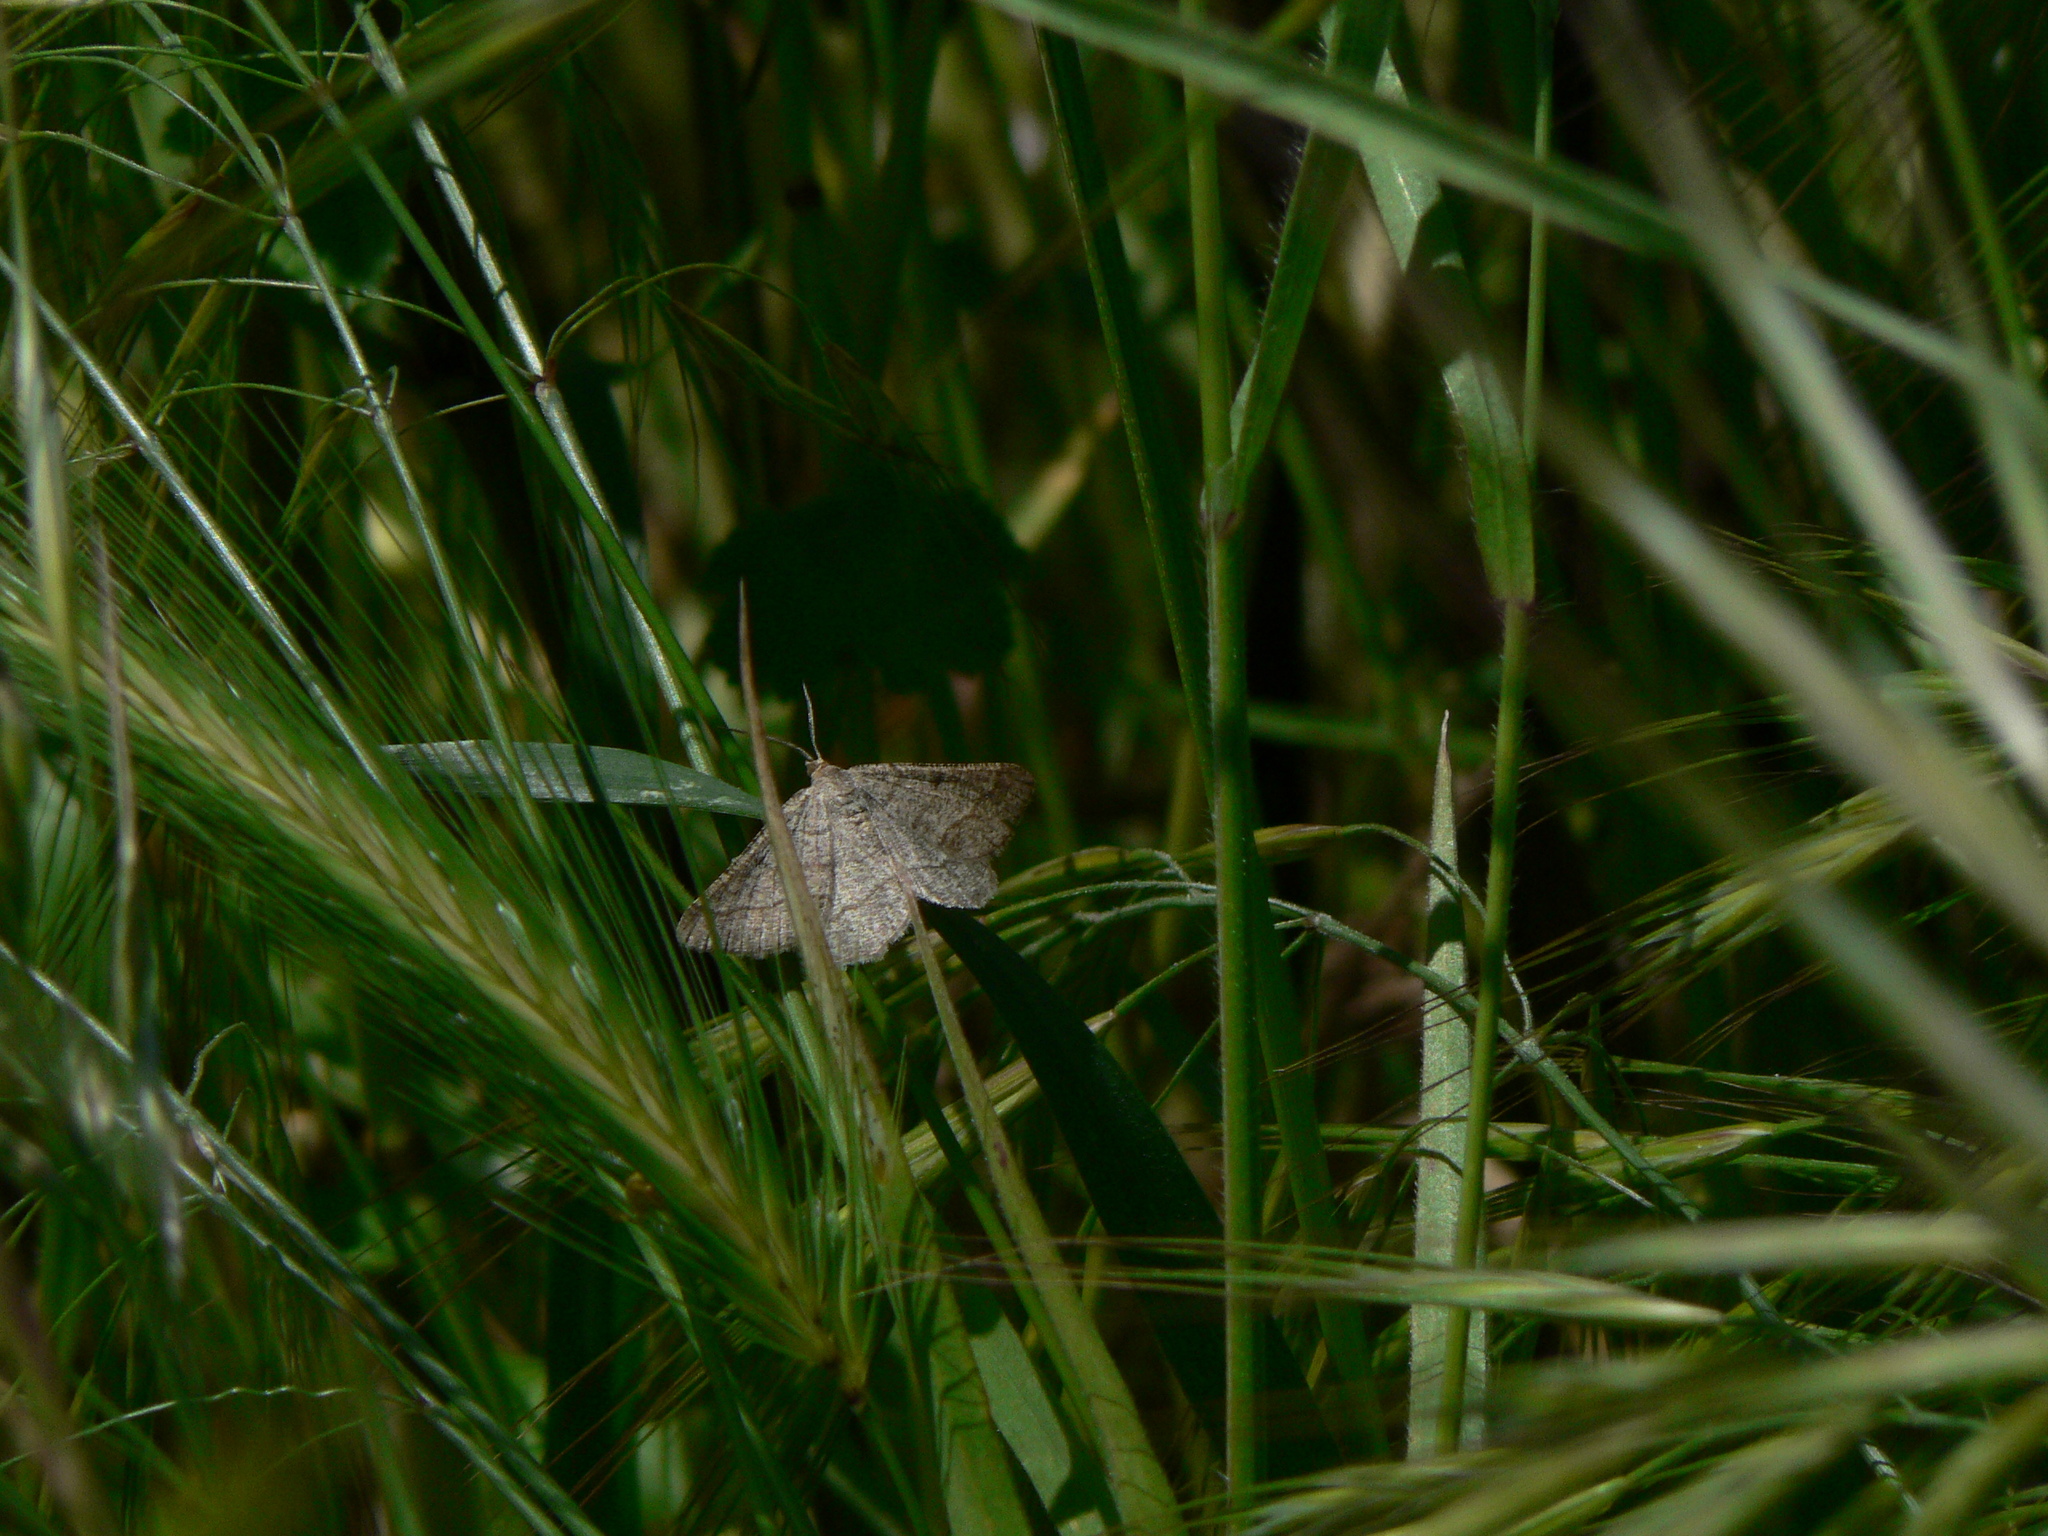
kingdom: Animalia
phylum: Arthropoda
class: Insecta
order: Lepidoptera
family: Geometridae
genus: Tephrina
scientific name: Tephrina murinaria
